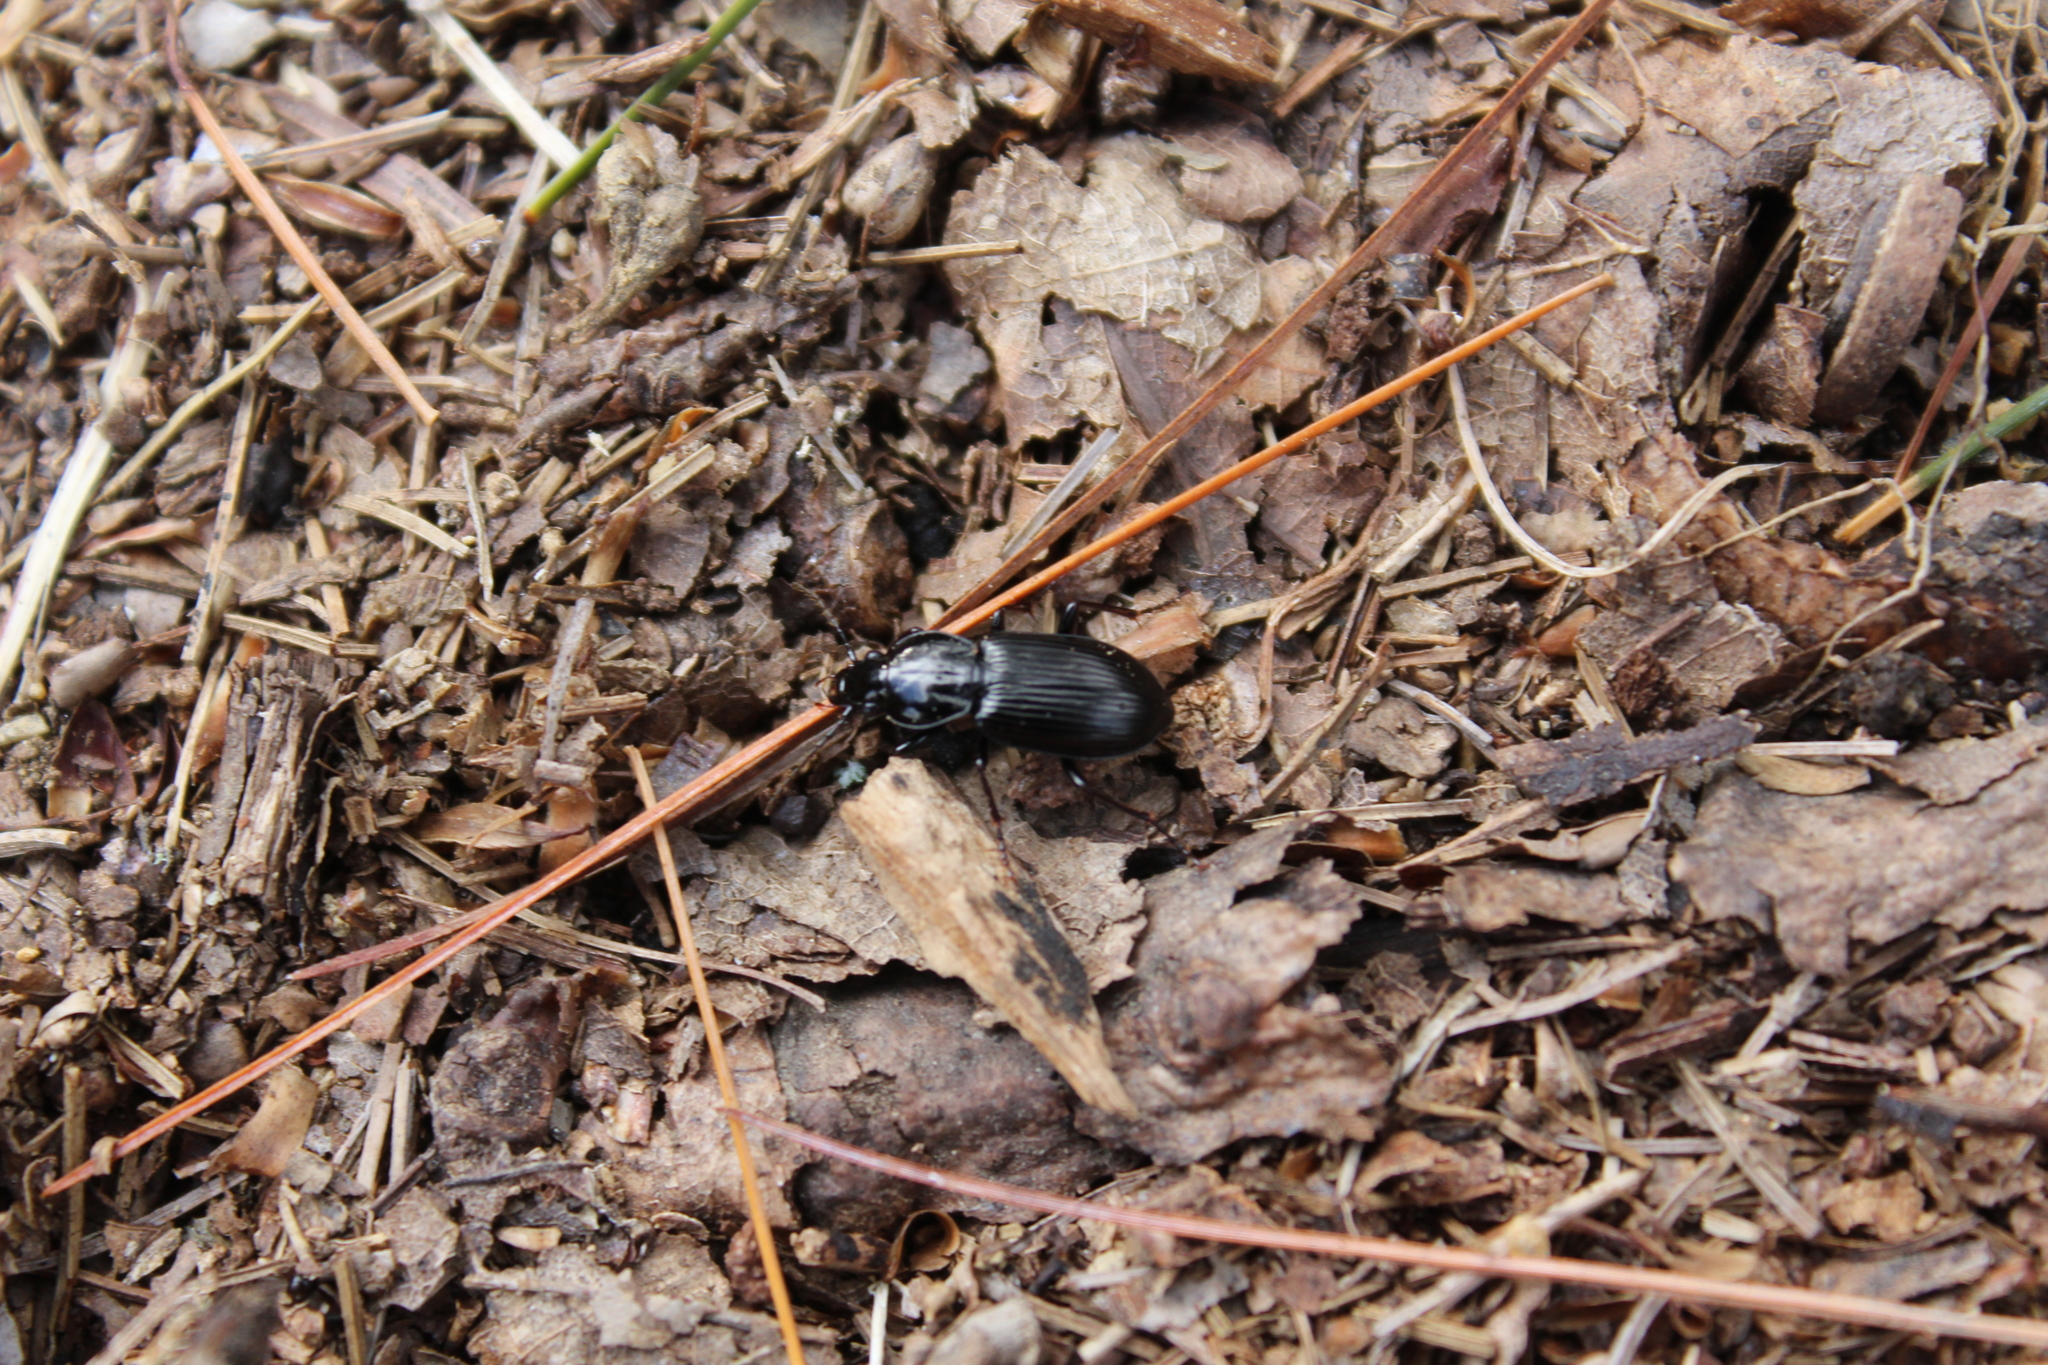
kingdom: Animalia
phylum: Arthropoda
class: Insecta
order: Coleoptera
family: Carabidae
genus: Pterostichus
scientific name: Pterostichus mutus
